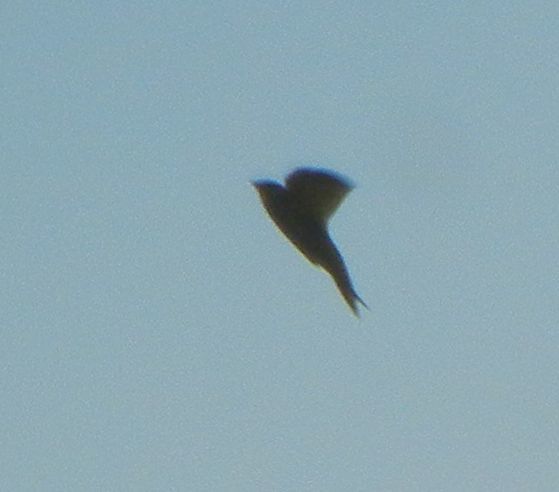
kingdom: Animalia
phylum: Chordata
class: Aves
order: Apodiformes
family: Apodidae
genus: Apus
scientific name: Apus apus
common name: Common swift
